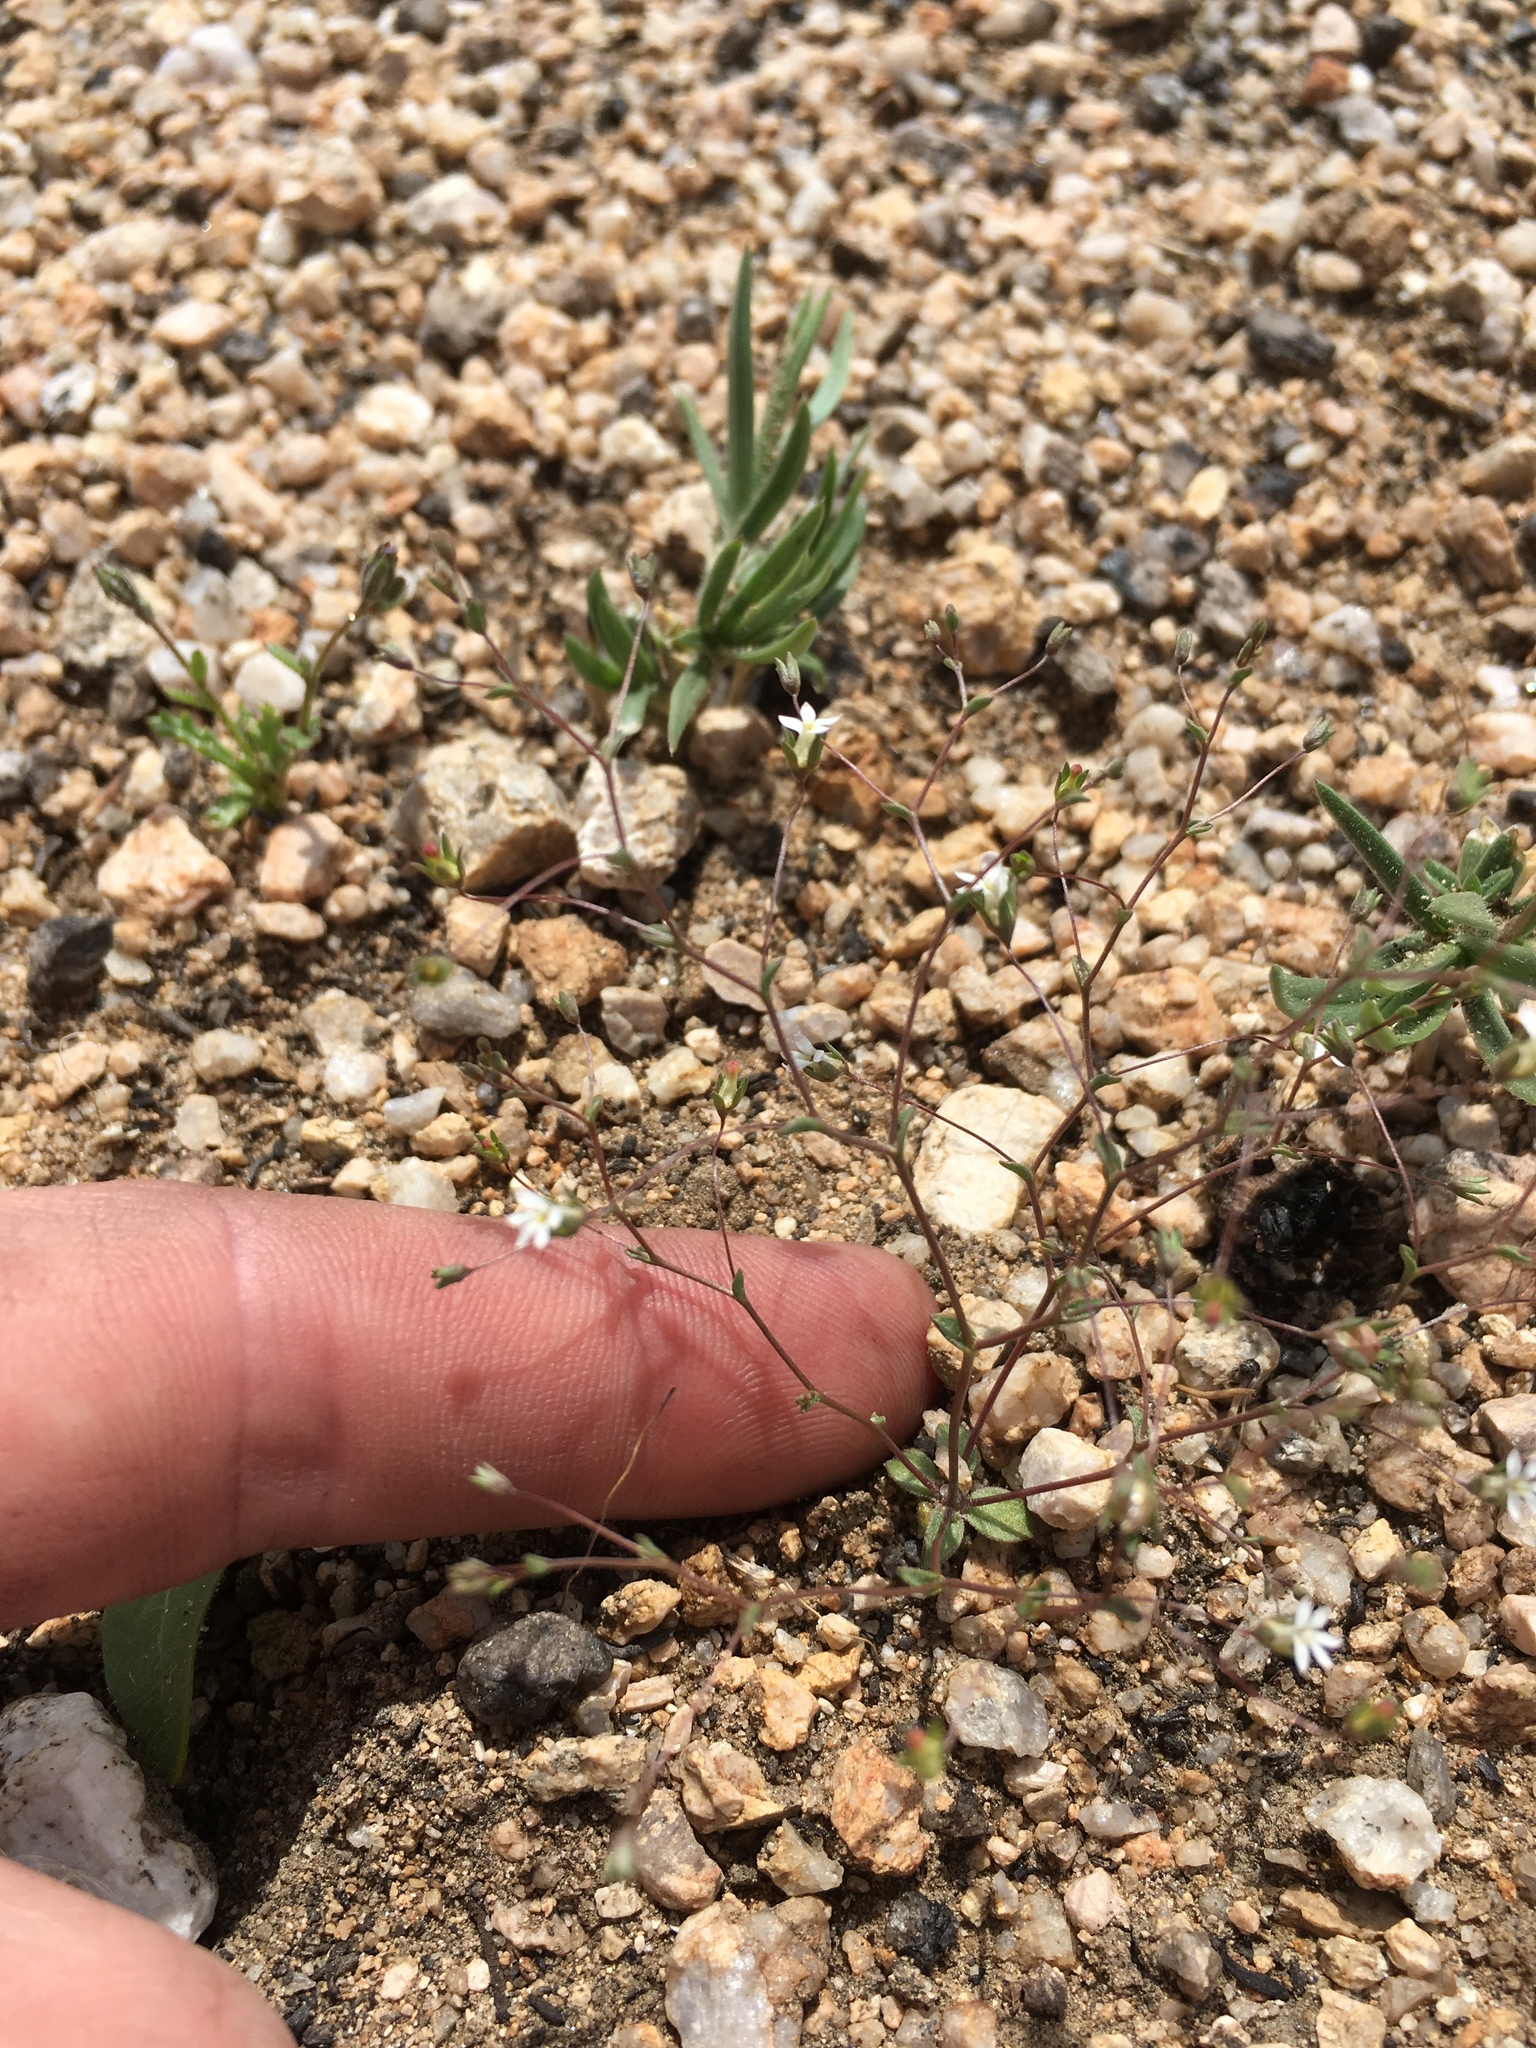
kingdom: Plantae
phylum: Tracheophyta
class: Magnoliopsida
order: Asterales
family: Campanulaceae
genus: Nemacladus
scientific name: Nemacladus sigmoideus
